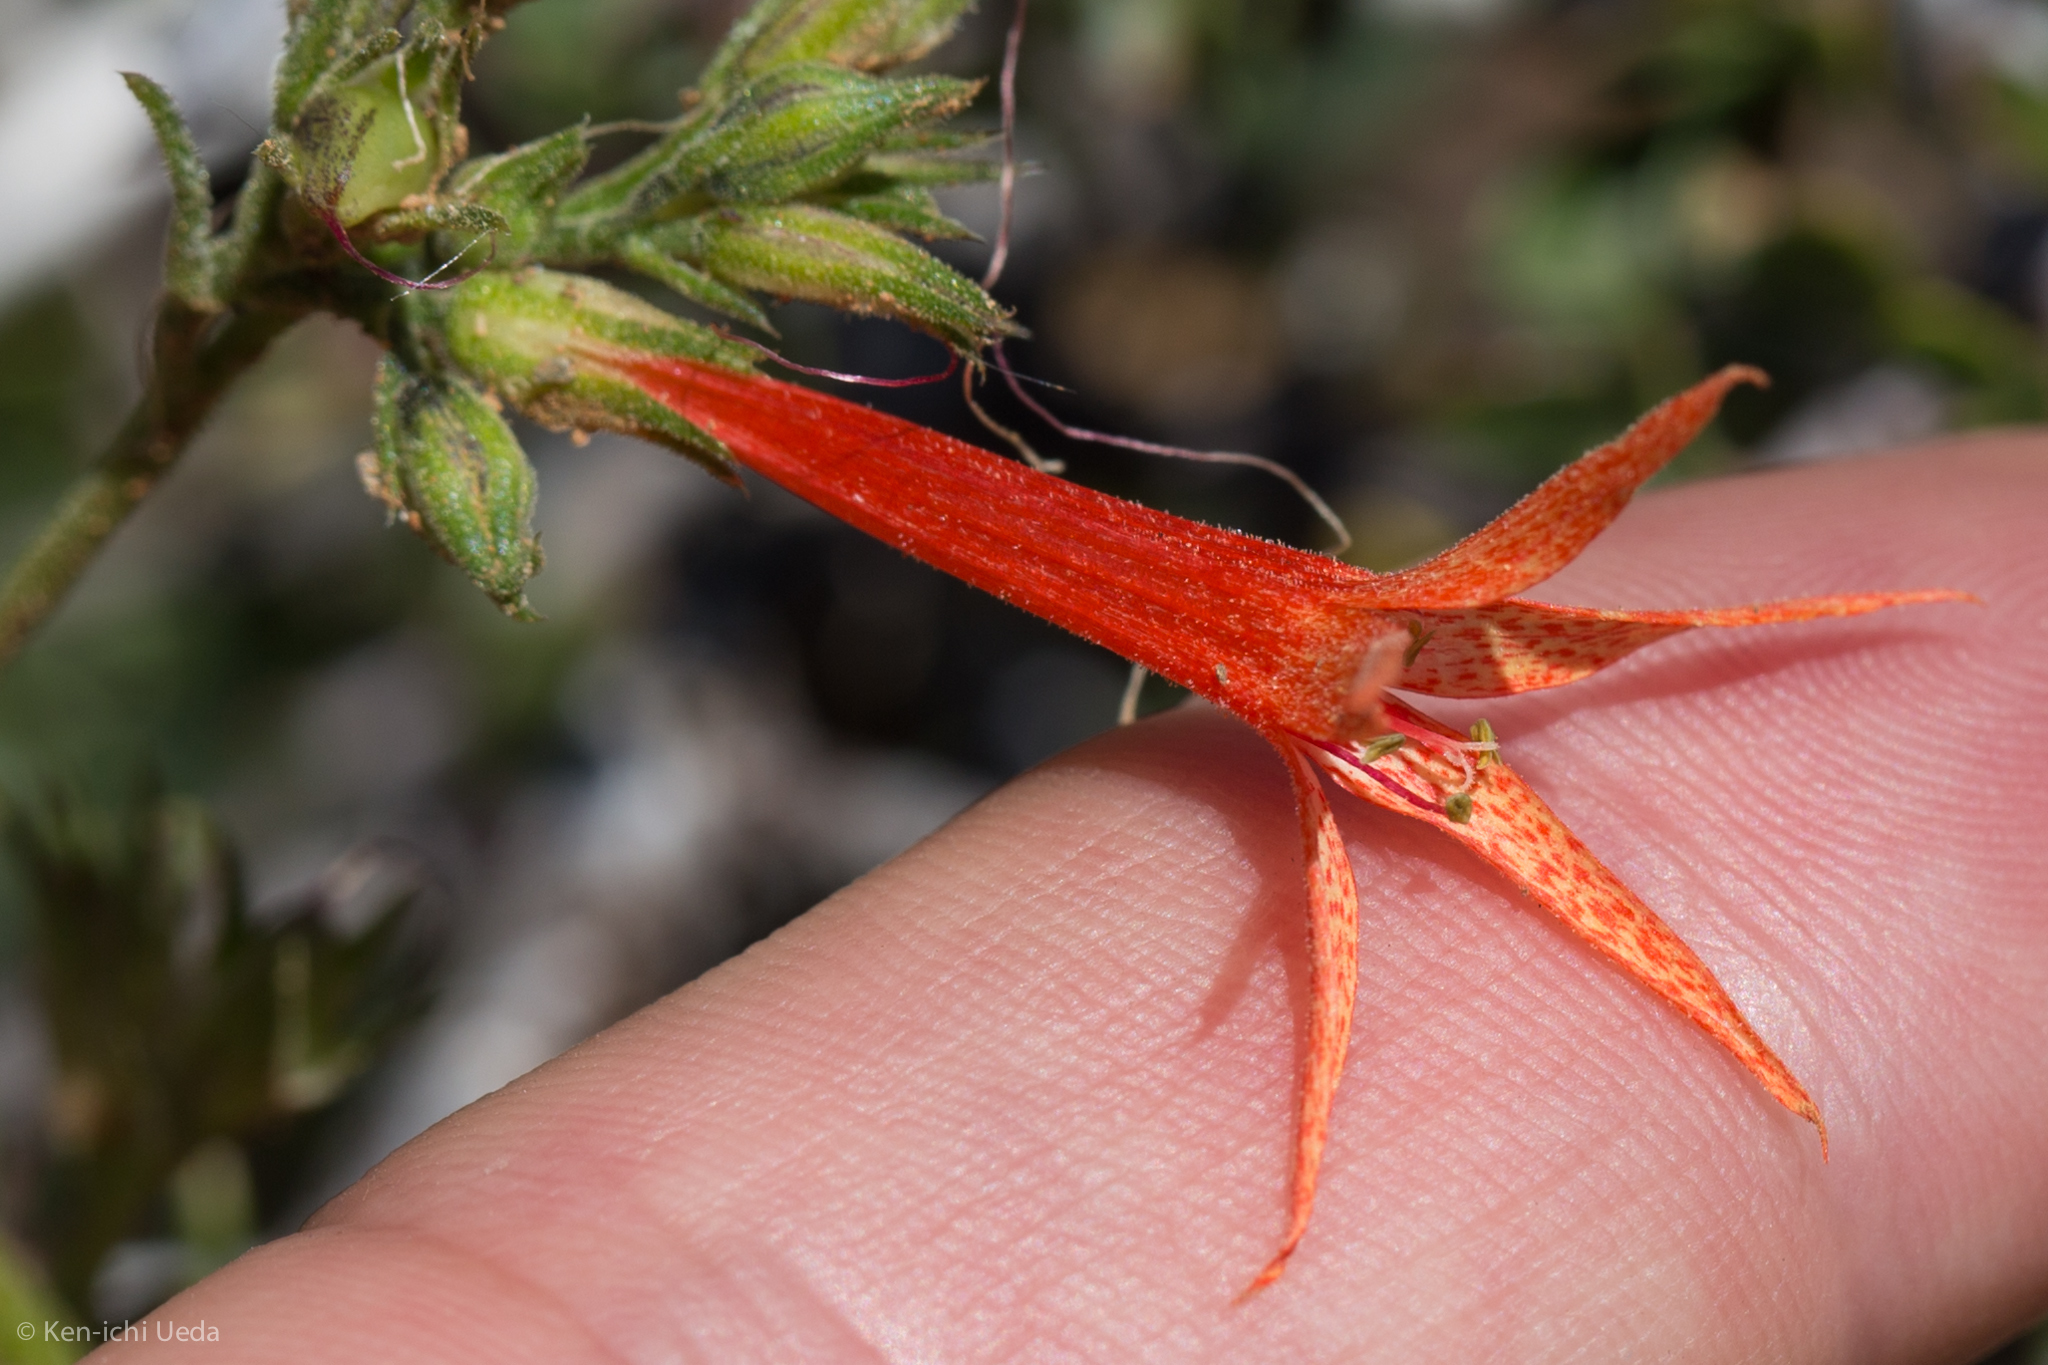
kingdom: Plantae
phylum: Tracheophyta
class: Magnoliopsida
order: Ericales
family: Polemoniaceae
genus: Ipomopsis
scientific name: Ipomopsis aggregata
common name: Scarlet gilia
